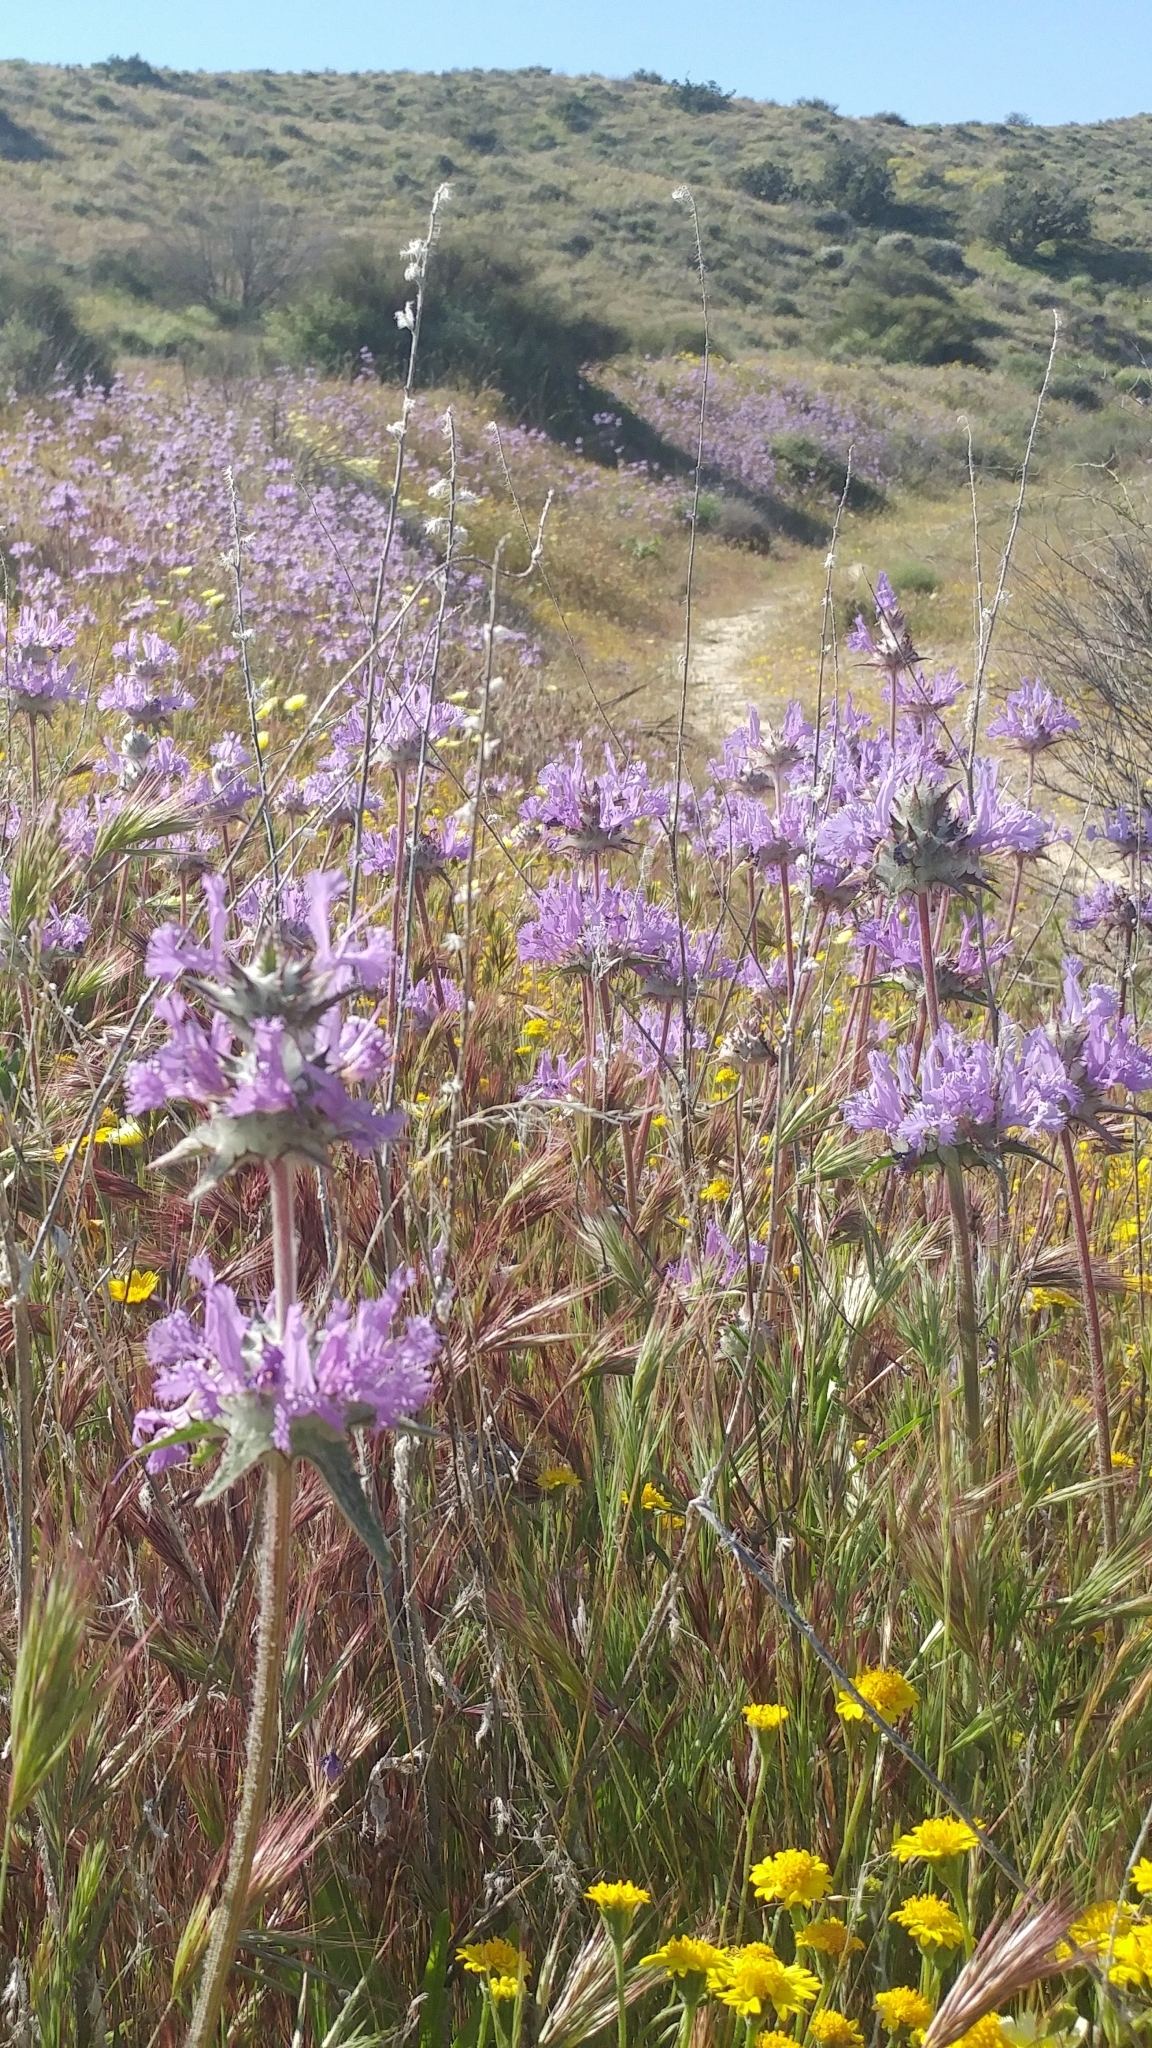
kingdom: Plantae
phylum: Tracheophyta
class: Magnoliopsida
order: Lamiales
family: Lamiaceae
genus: Salvia
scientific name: Salvia carduacea
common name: Thistle sage
